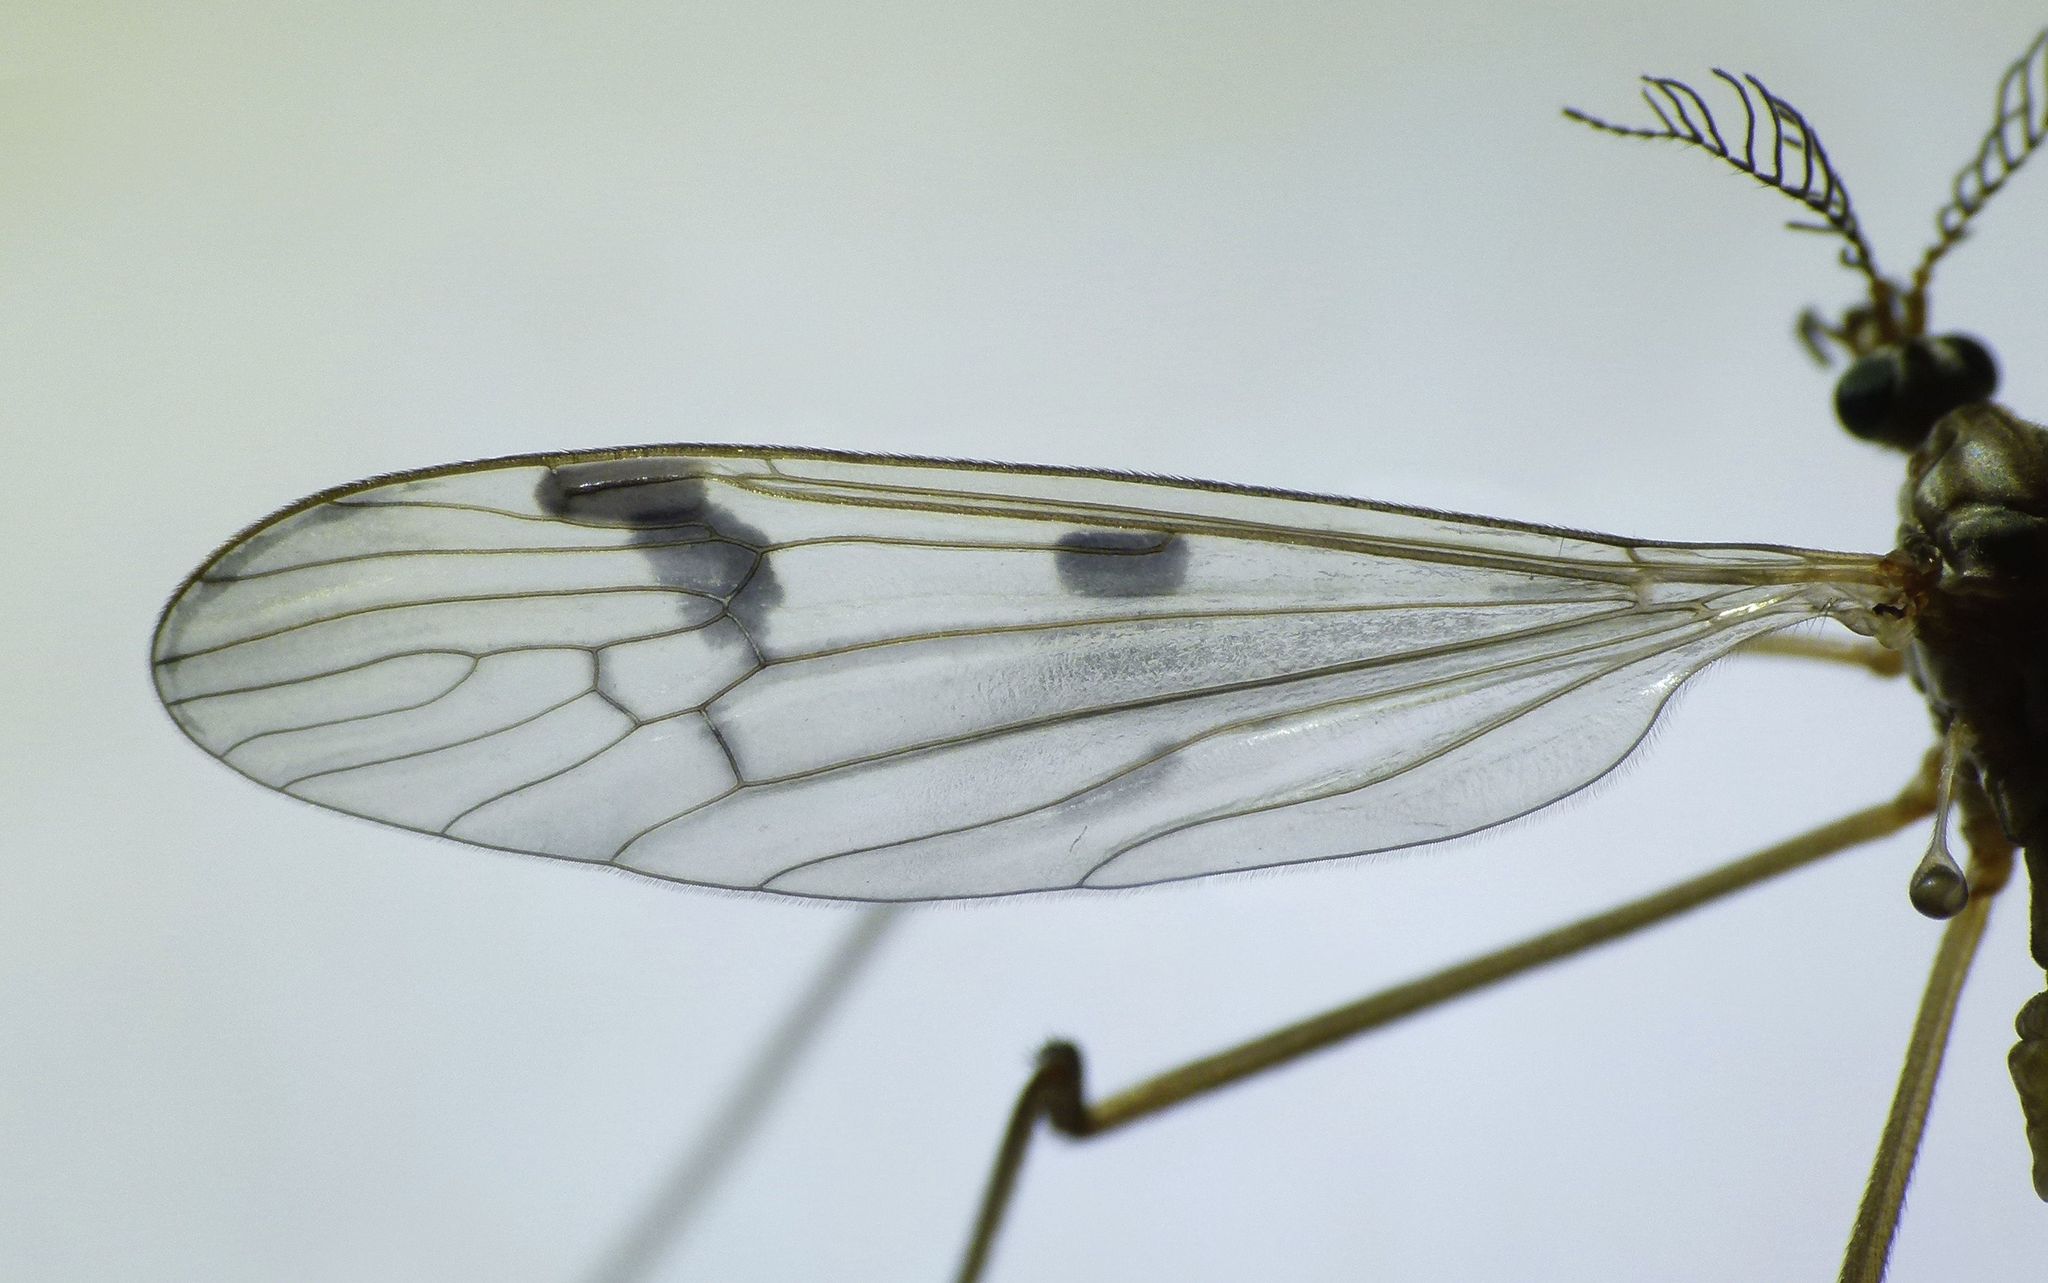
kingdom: Animalia
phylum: Arthropoda
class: Insecta
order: Diptera
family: Limoniidae
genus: Gynoplistia
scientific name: Gynoplistia glauca
